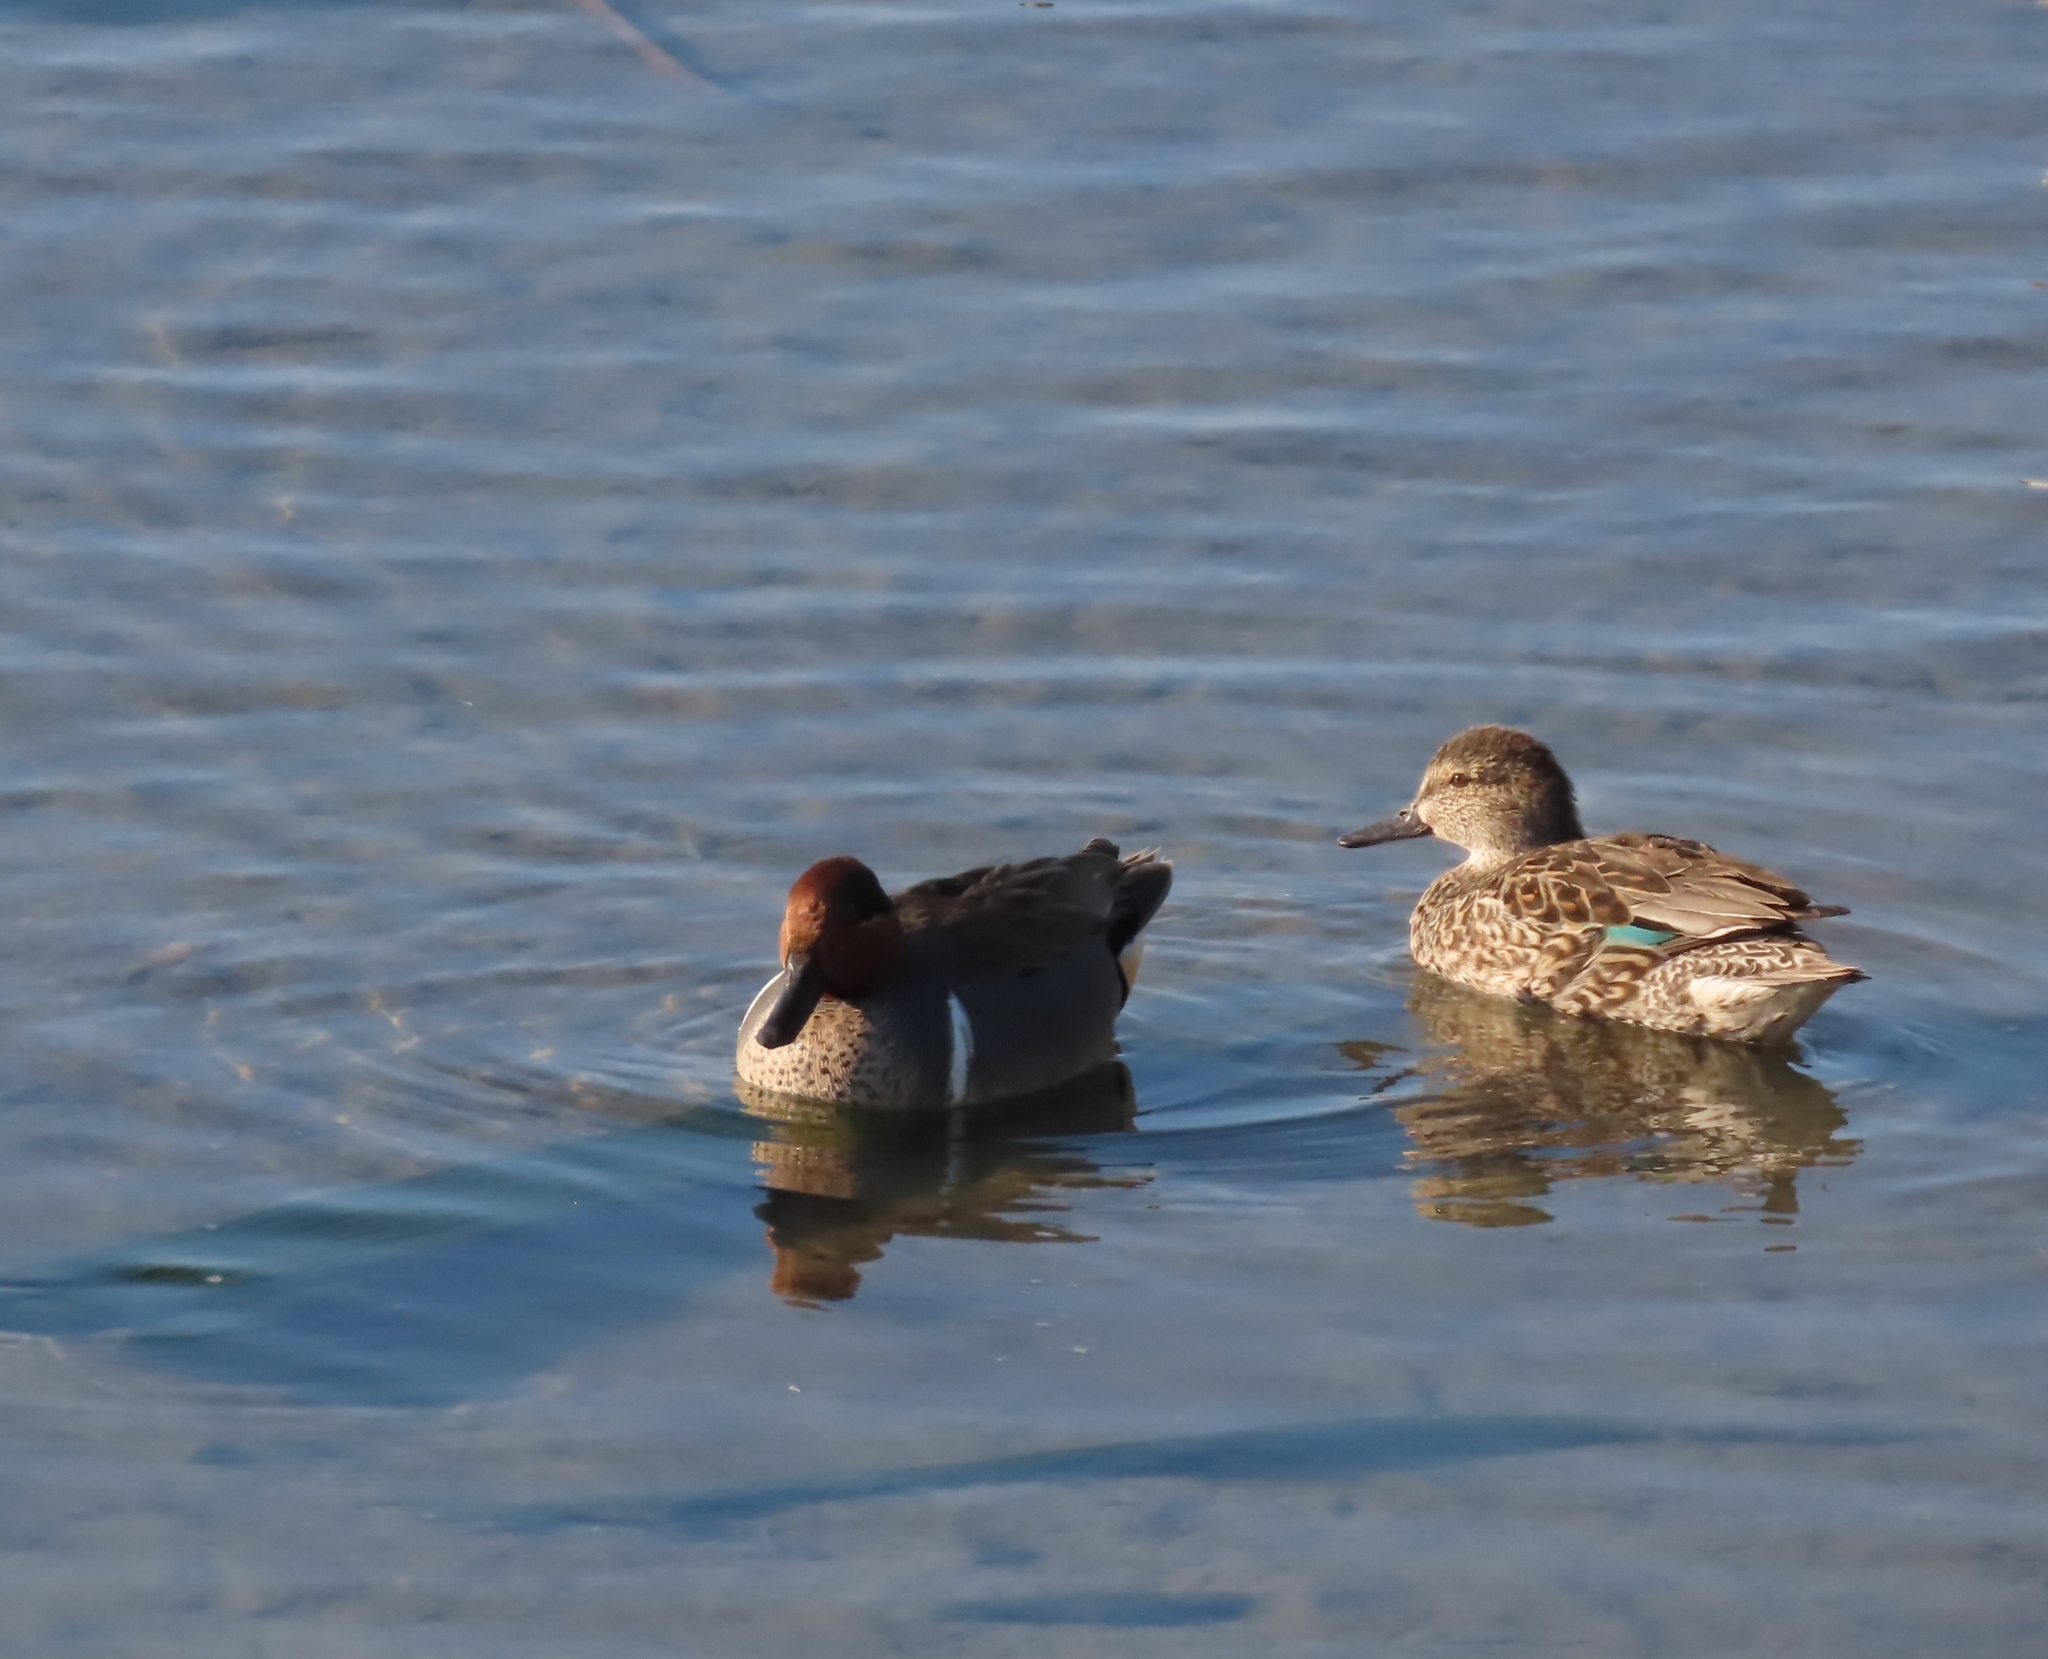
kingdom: Animalia
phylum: Chordata
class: Aves
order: Anseriformes
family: Anatidae
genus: Anas
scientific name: Anas crecca
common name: Eurasian teal
